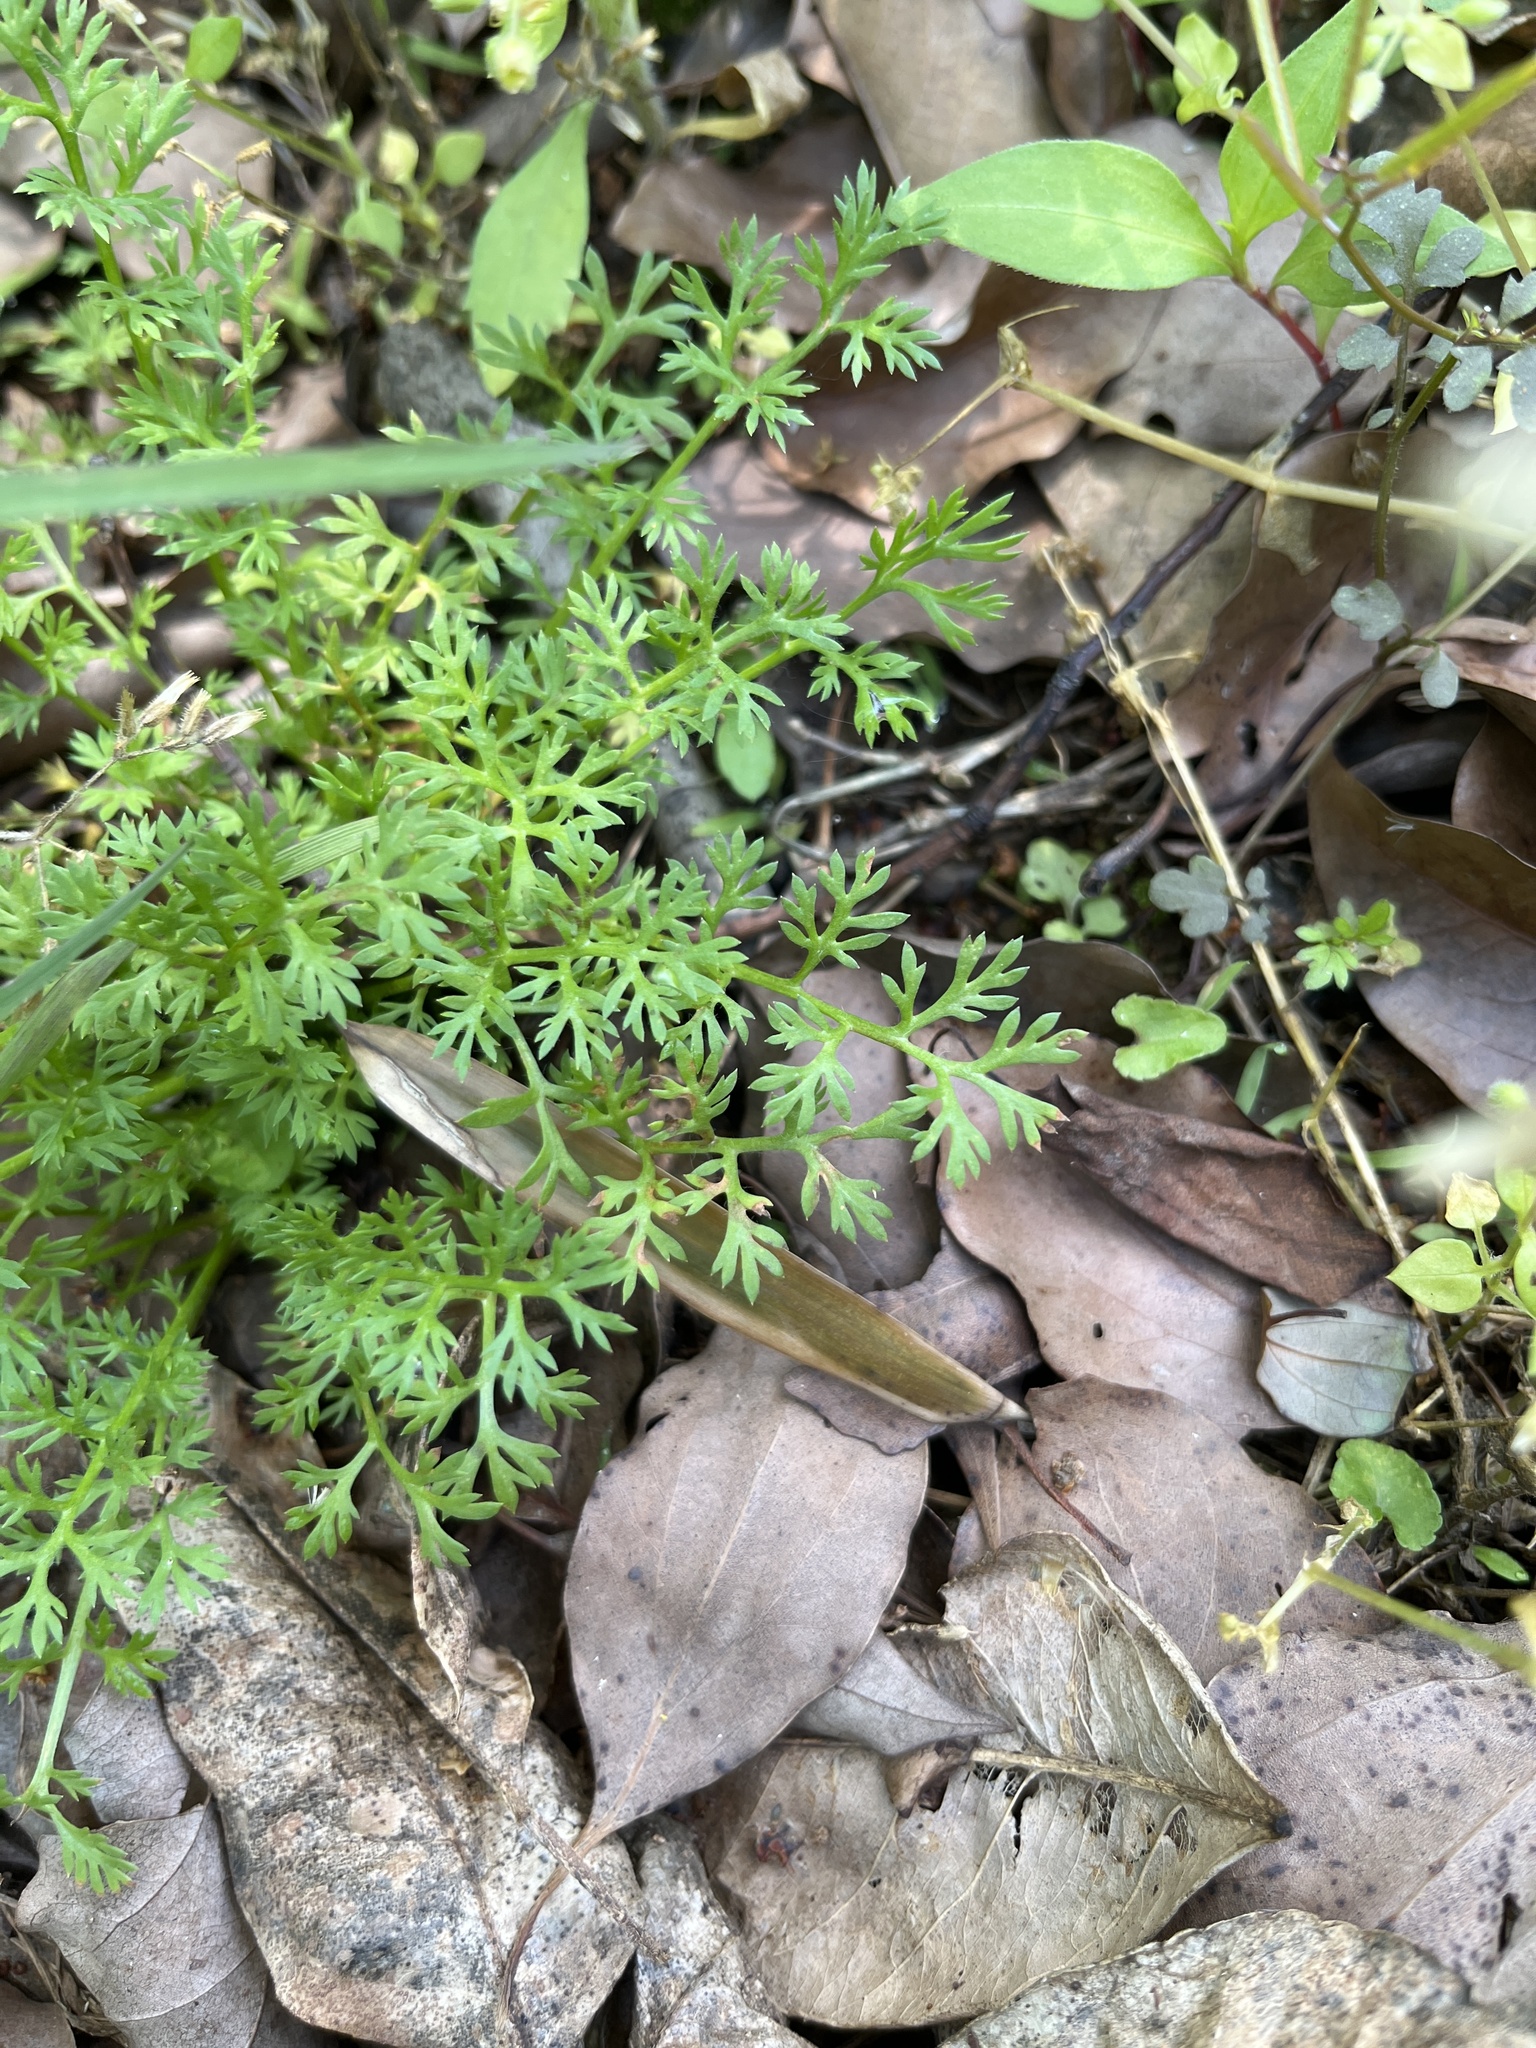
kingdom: Plantae
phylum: Tracheophyta
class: Magnoliopsida
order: Brassicales
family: Brassicaceae
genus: Lepidium
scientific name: Lepidium didymum
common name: Lesser swinecress
